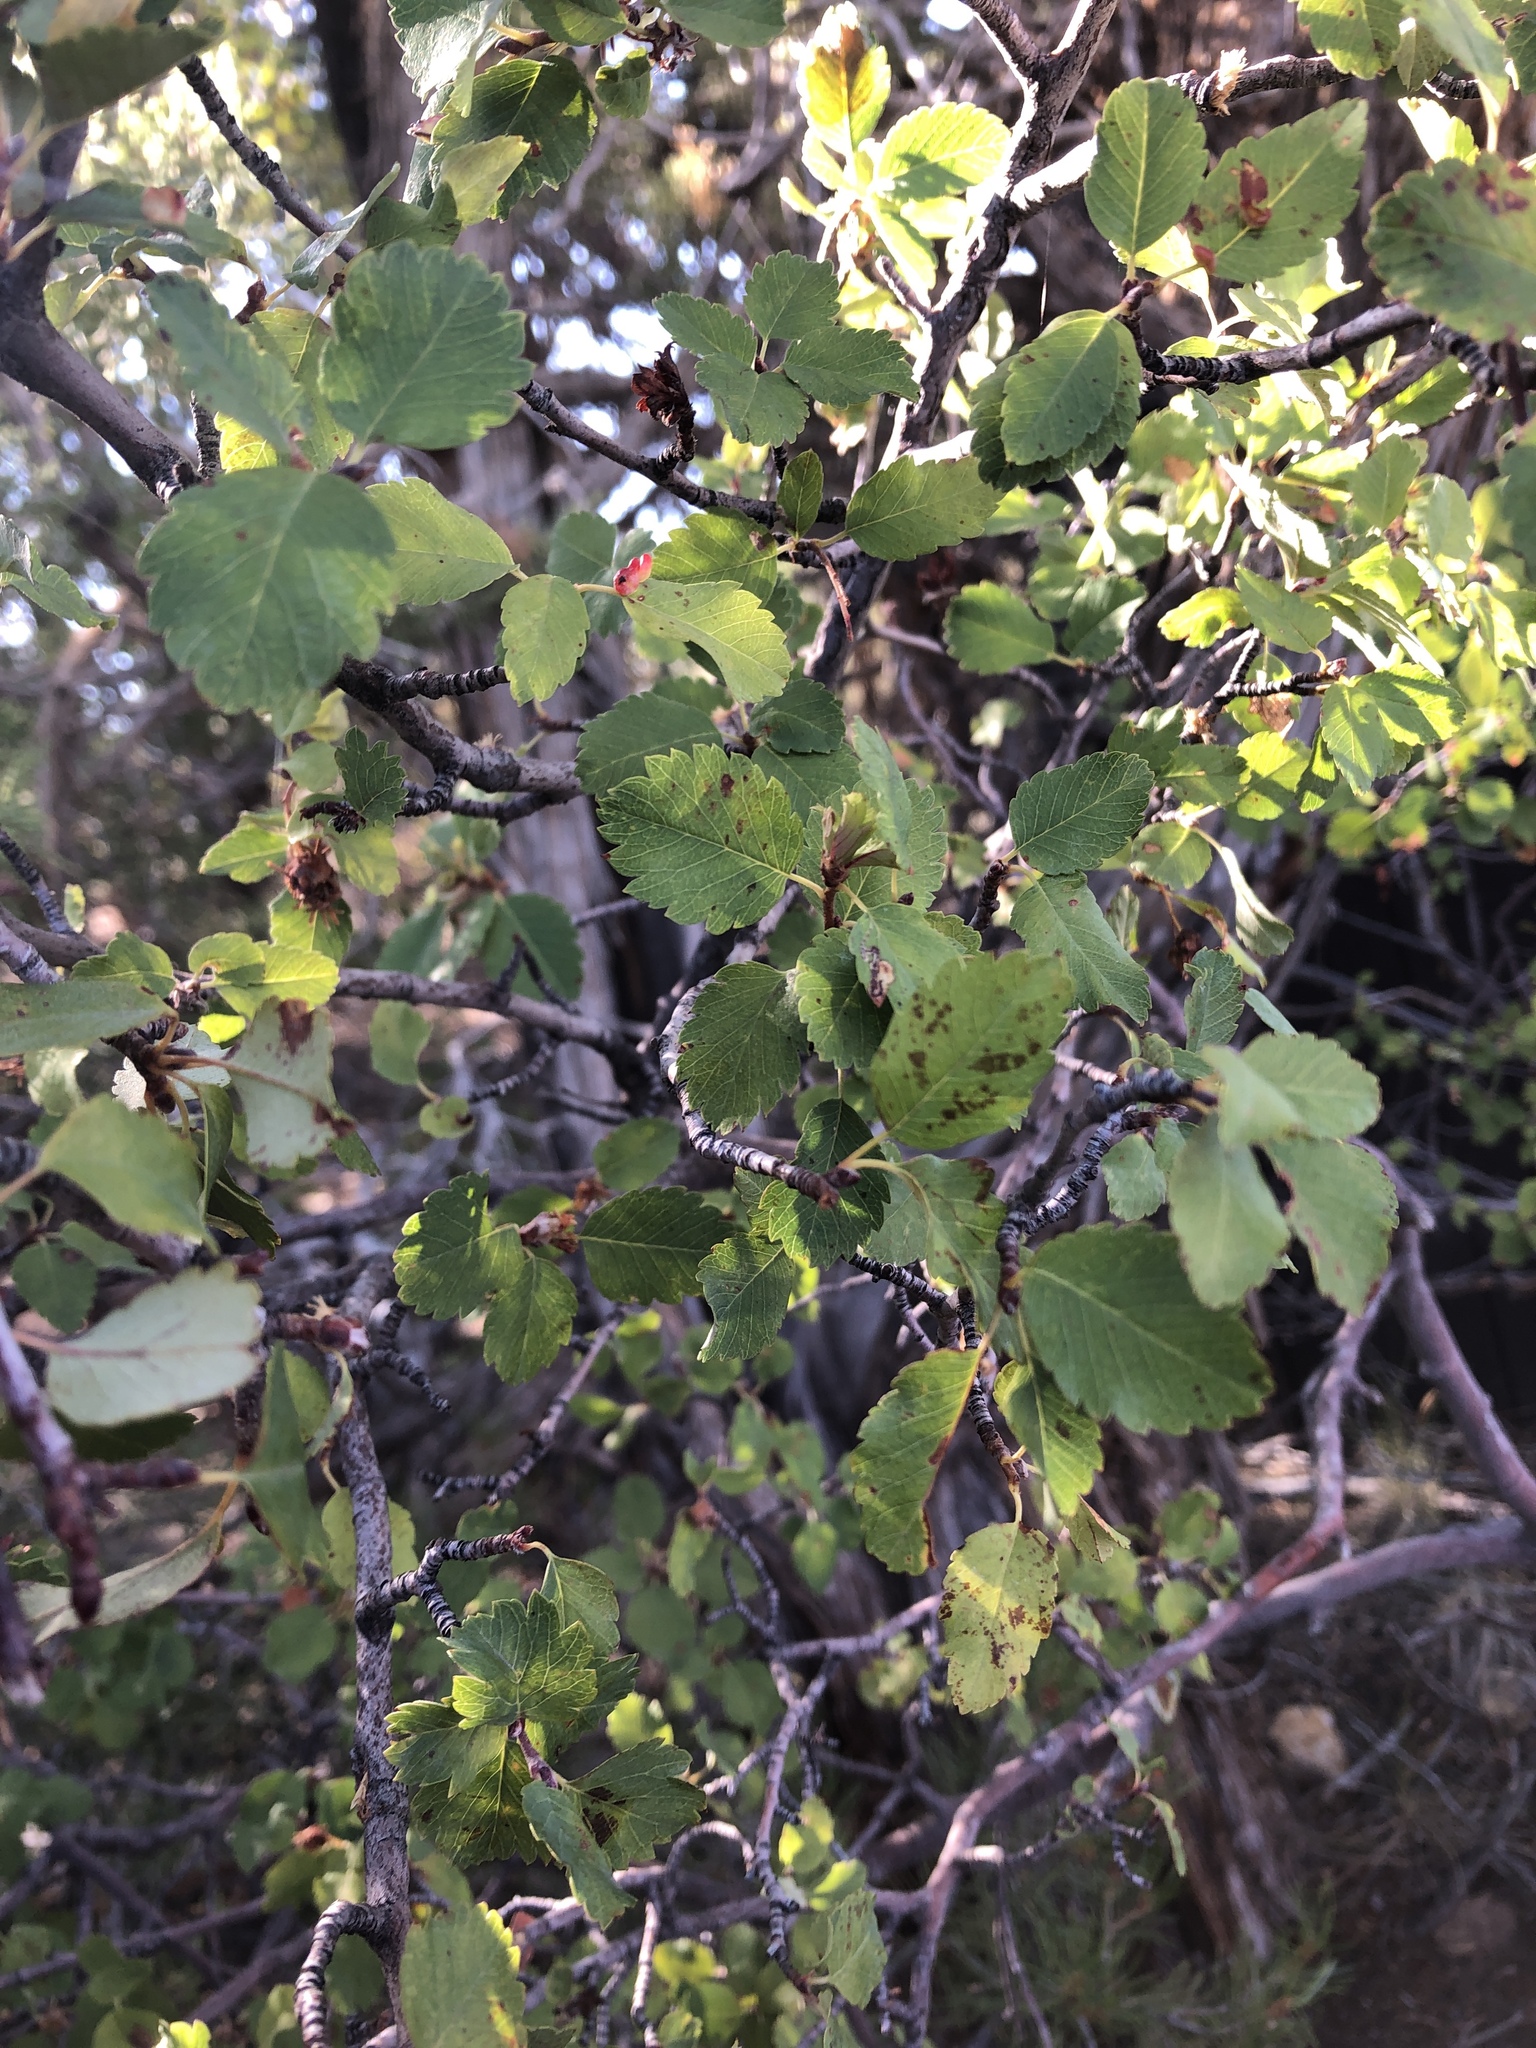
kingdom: Plantae
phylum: Tracheophyta
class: Magnoliopsida
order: Rosales
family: Rosaceae
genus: Amelanchier
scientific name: Amelanchier utahensis
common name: Utah serviceberry
